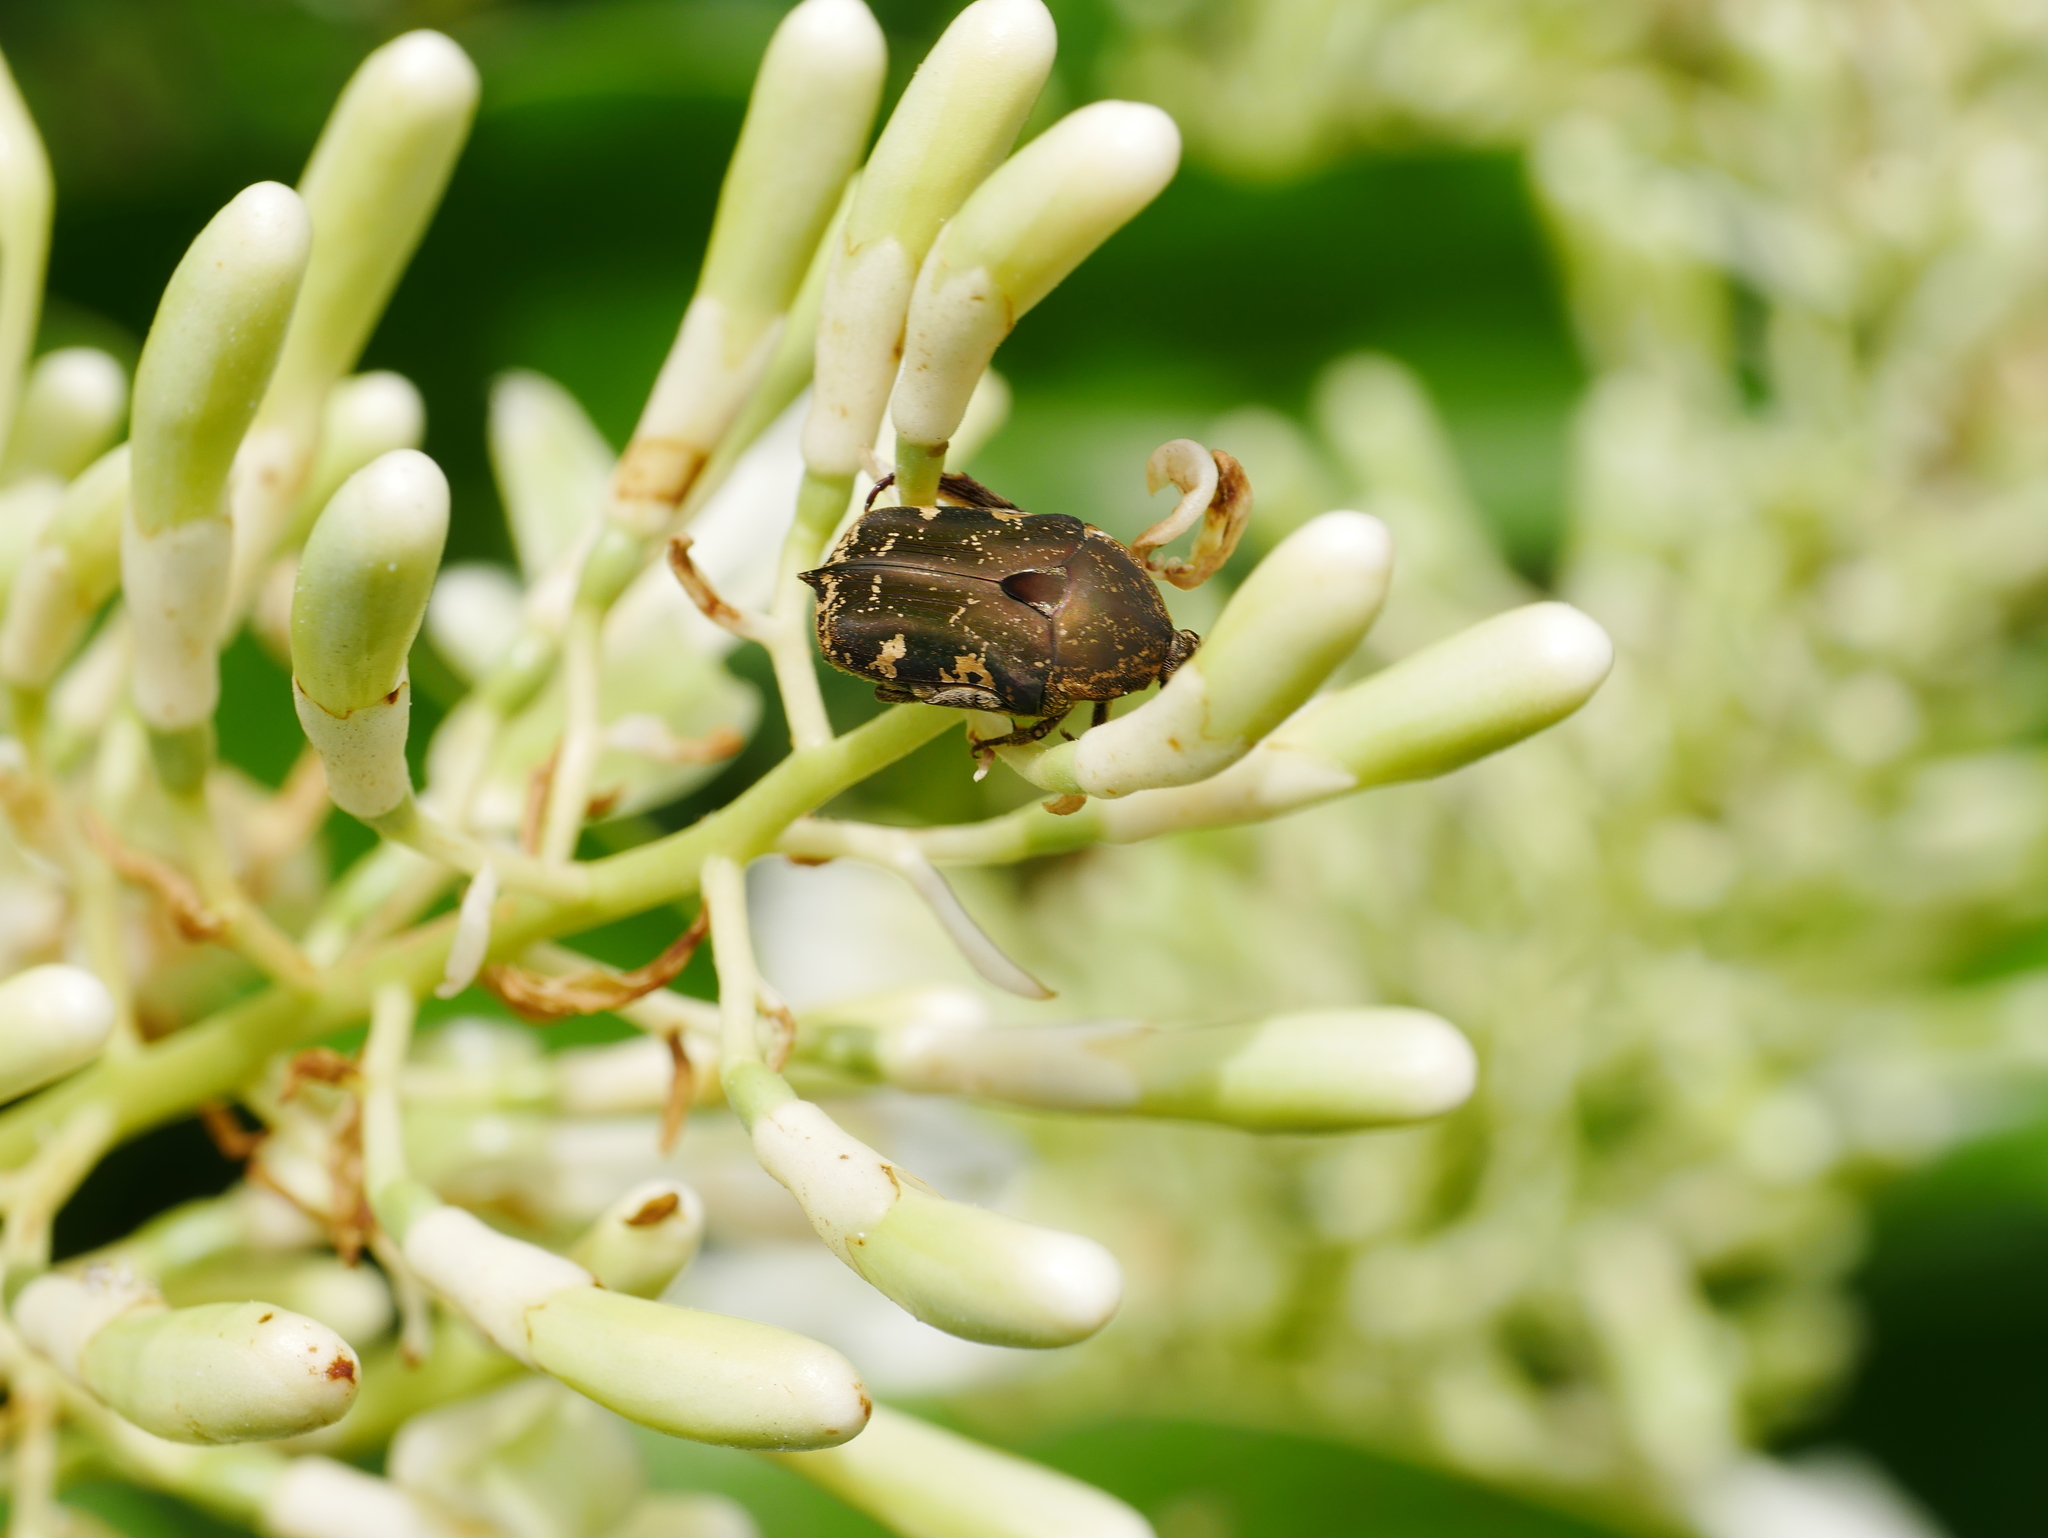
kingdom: Animalia
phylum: Arthropoda
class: Insecta
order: Coleoptera
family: Scarabaeidae
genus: Protaetia
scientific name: Protaetia fusca
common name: Mango flower beetle
